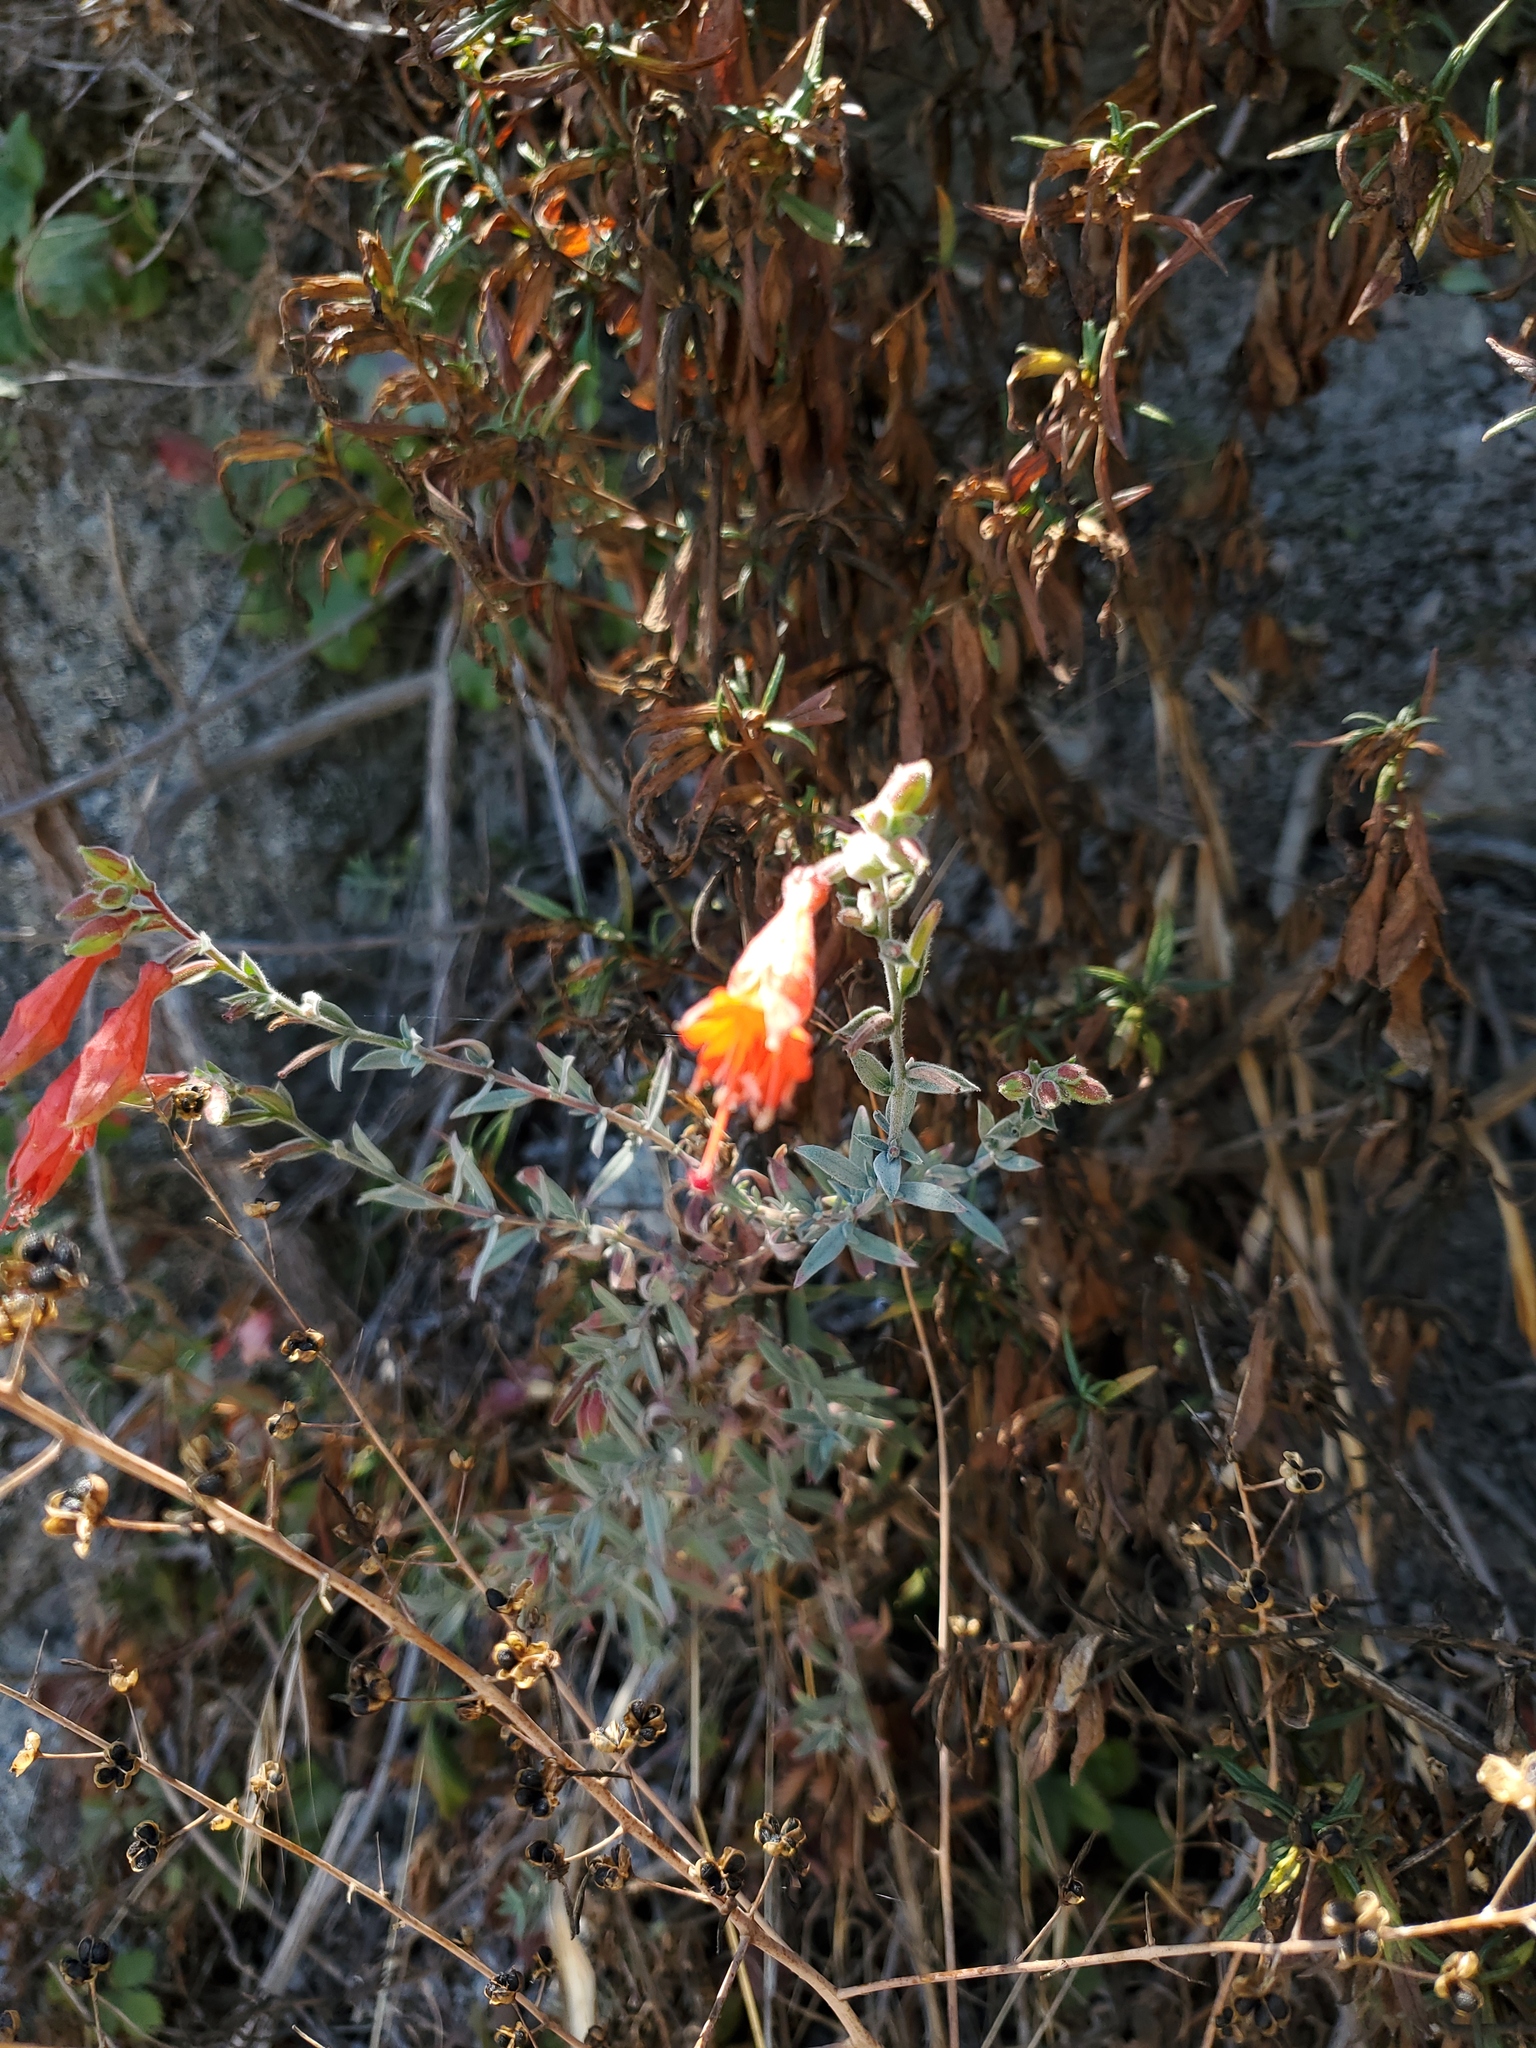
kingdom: Plantae
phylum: Tracheophyta
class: Magnoliopsida
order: Myrtales
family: Onagraceae
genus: Epilobium
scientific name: Epilobium canum
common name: California-fuchsia
